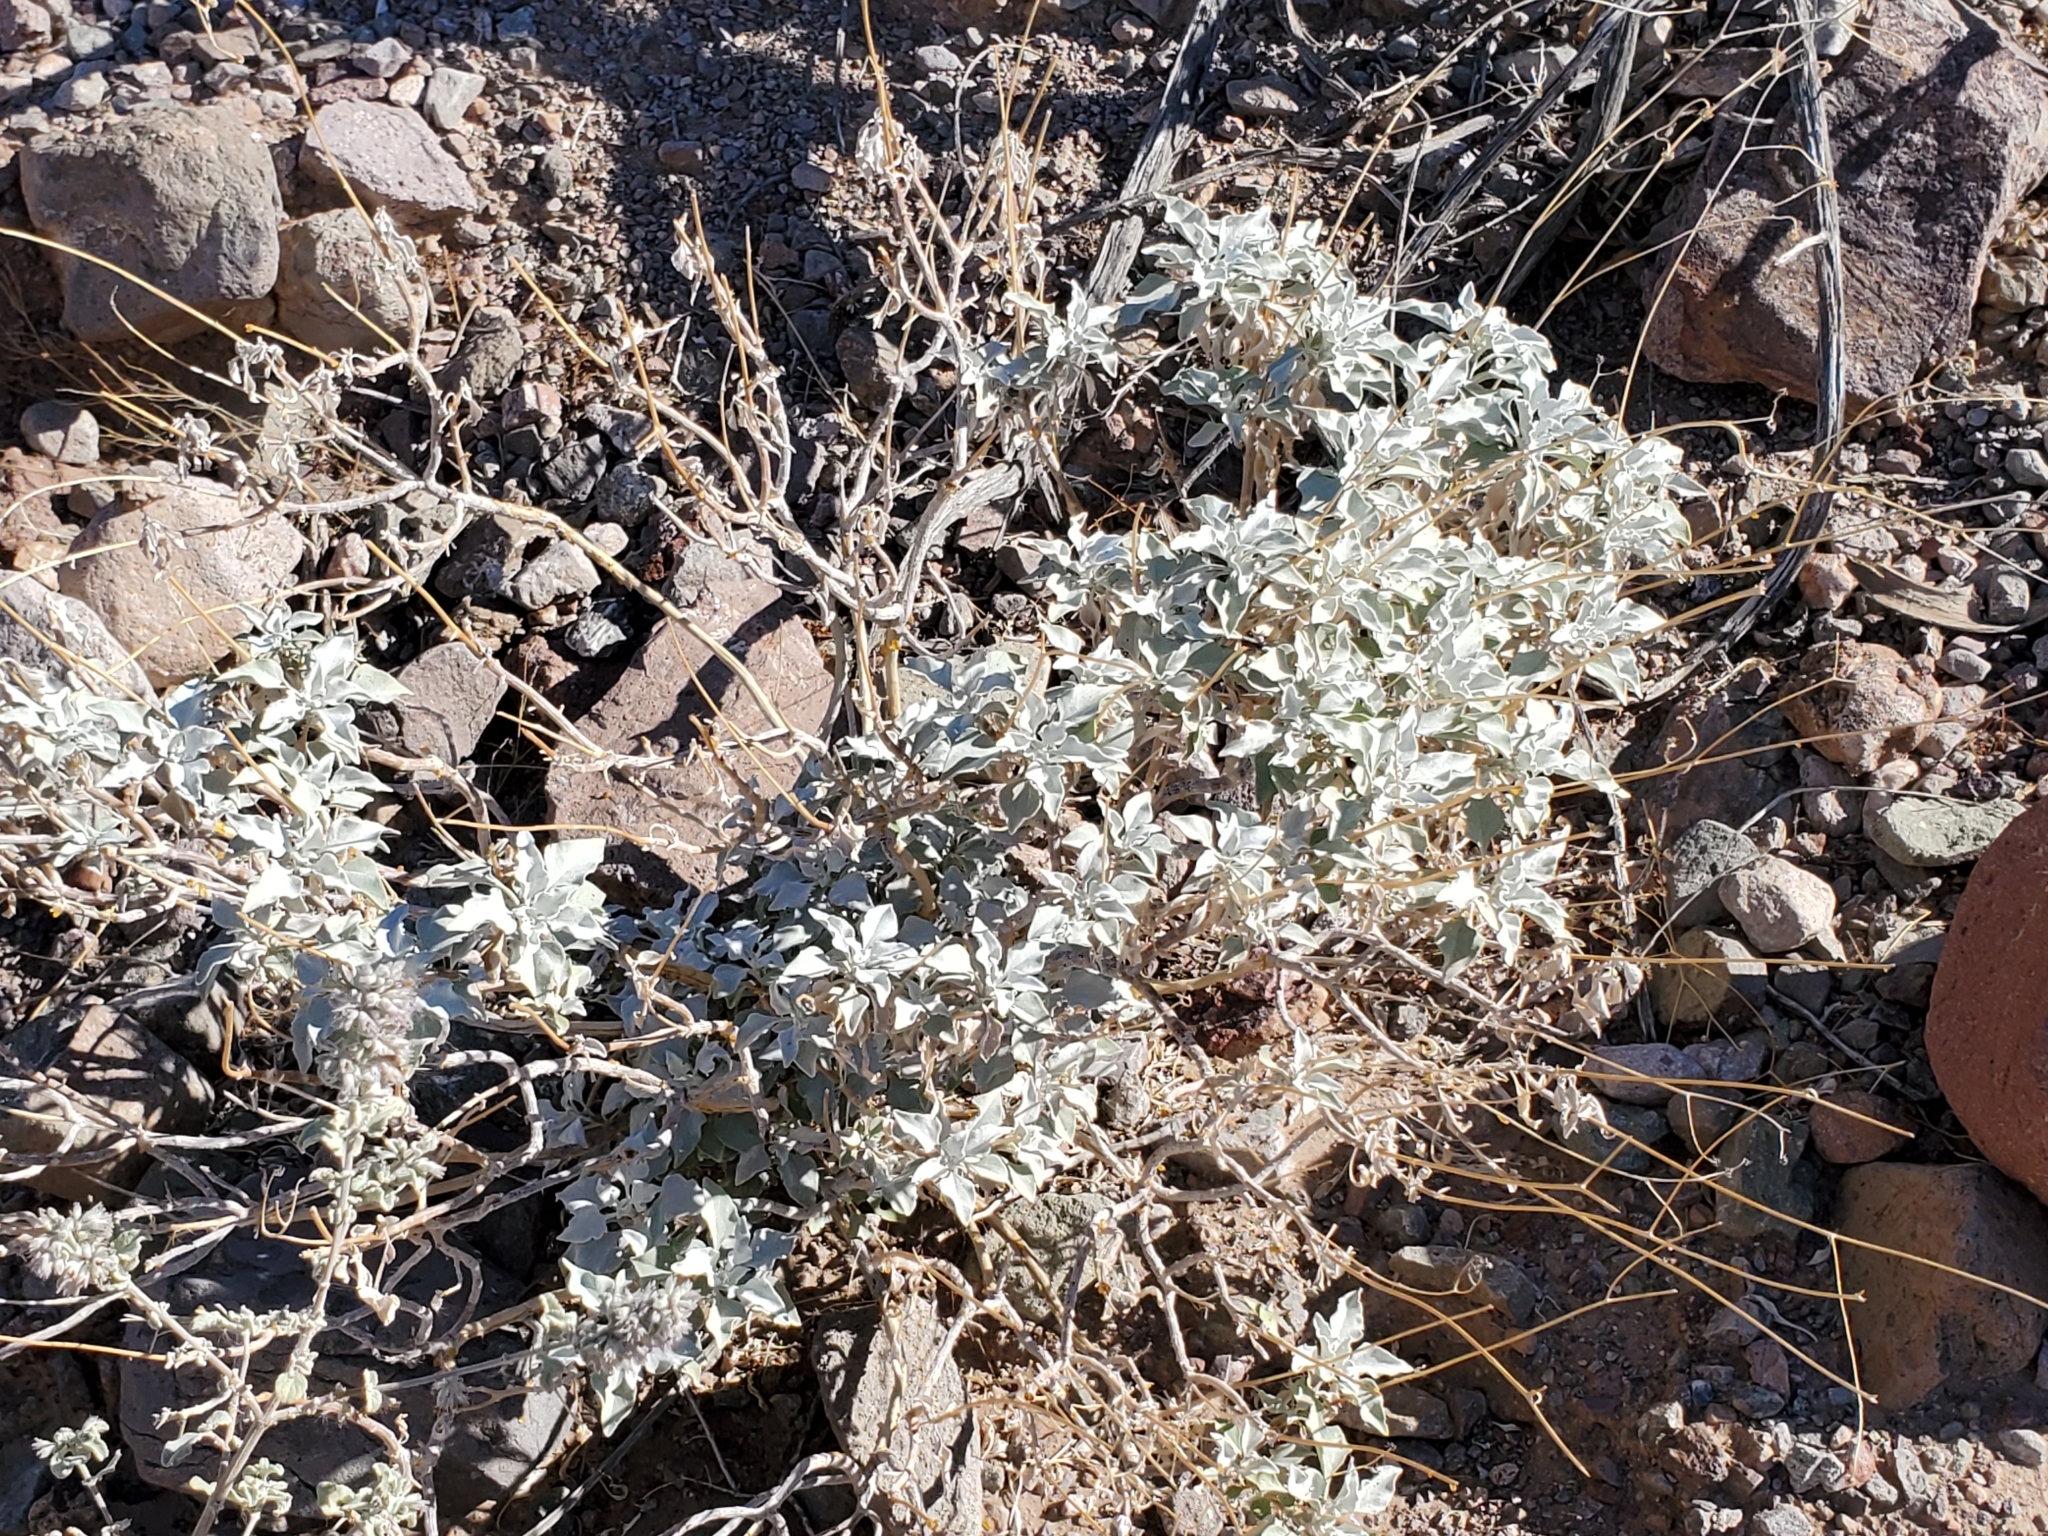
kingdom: Plantae
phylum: Tracheophyta
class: Magnoliopsida
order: Asterales
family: Asteraceae
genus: Encelia
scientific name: Encelia farinosa
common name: Brittlebush
